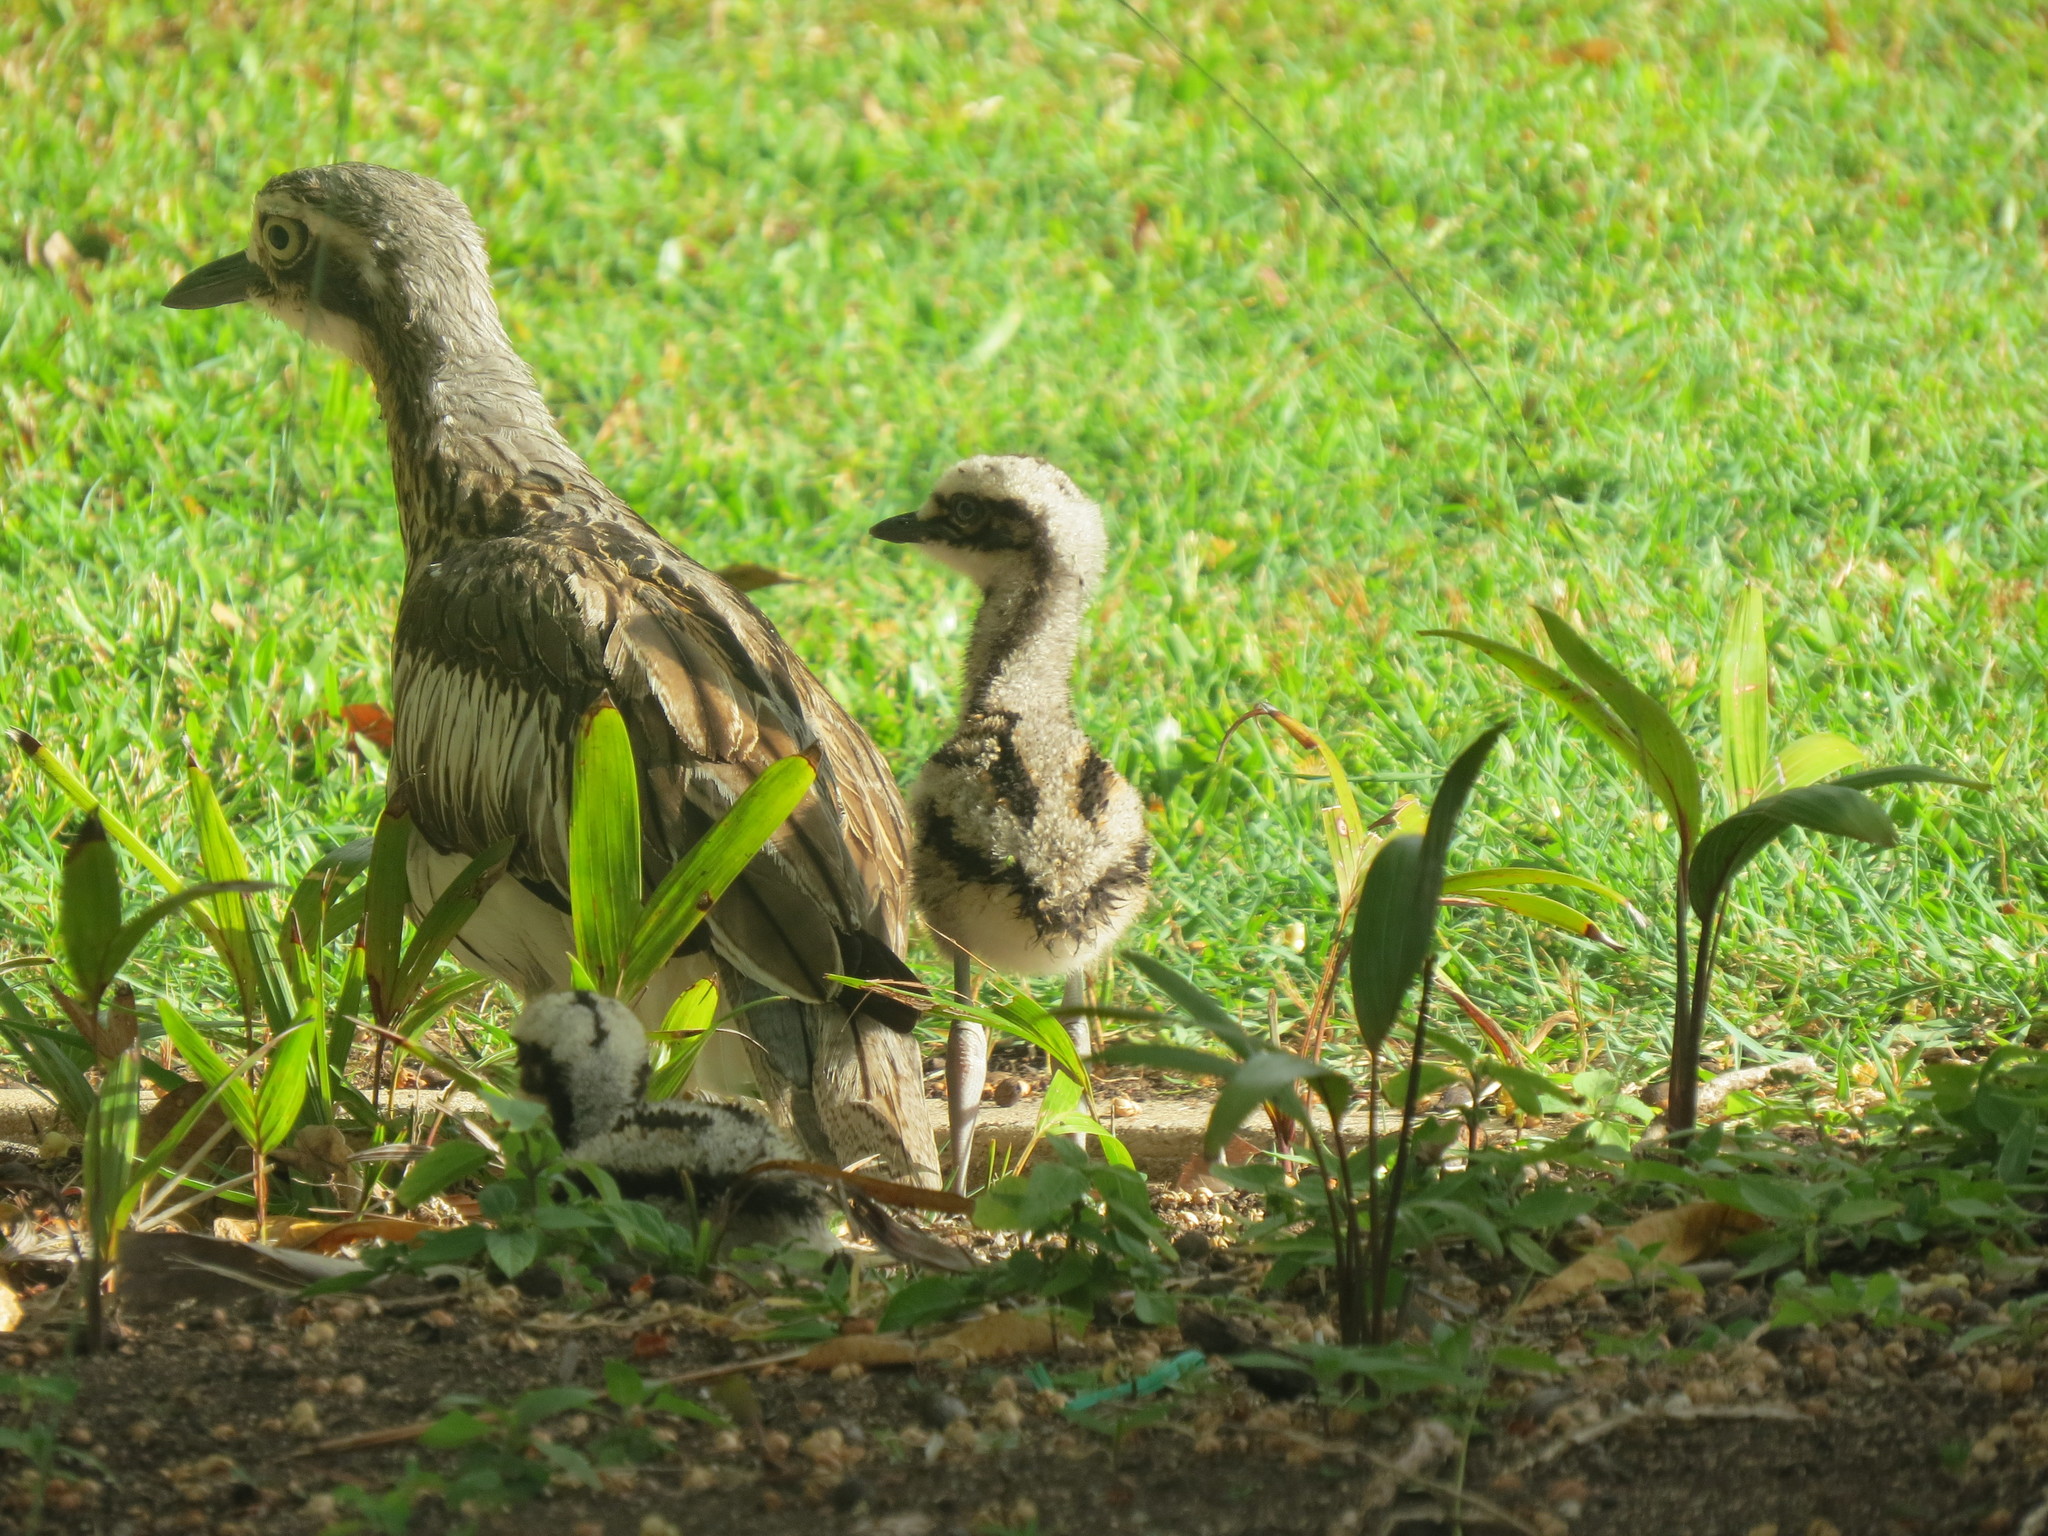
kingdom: Animalia
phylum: Chordata
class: Aves
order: Charadriiformes
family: Burhinidae
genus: Burhinus
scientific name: Burhinus grallarius
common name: Bush stone-curlew
